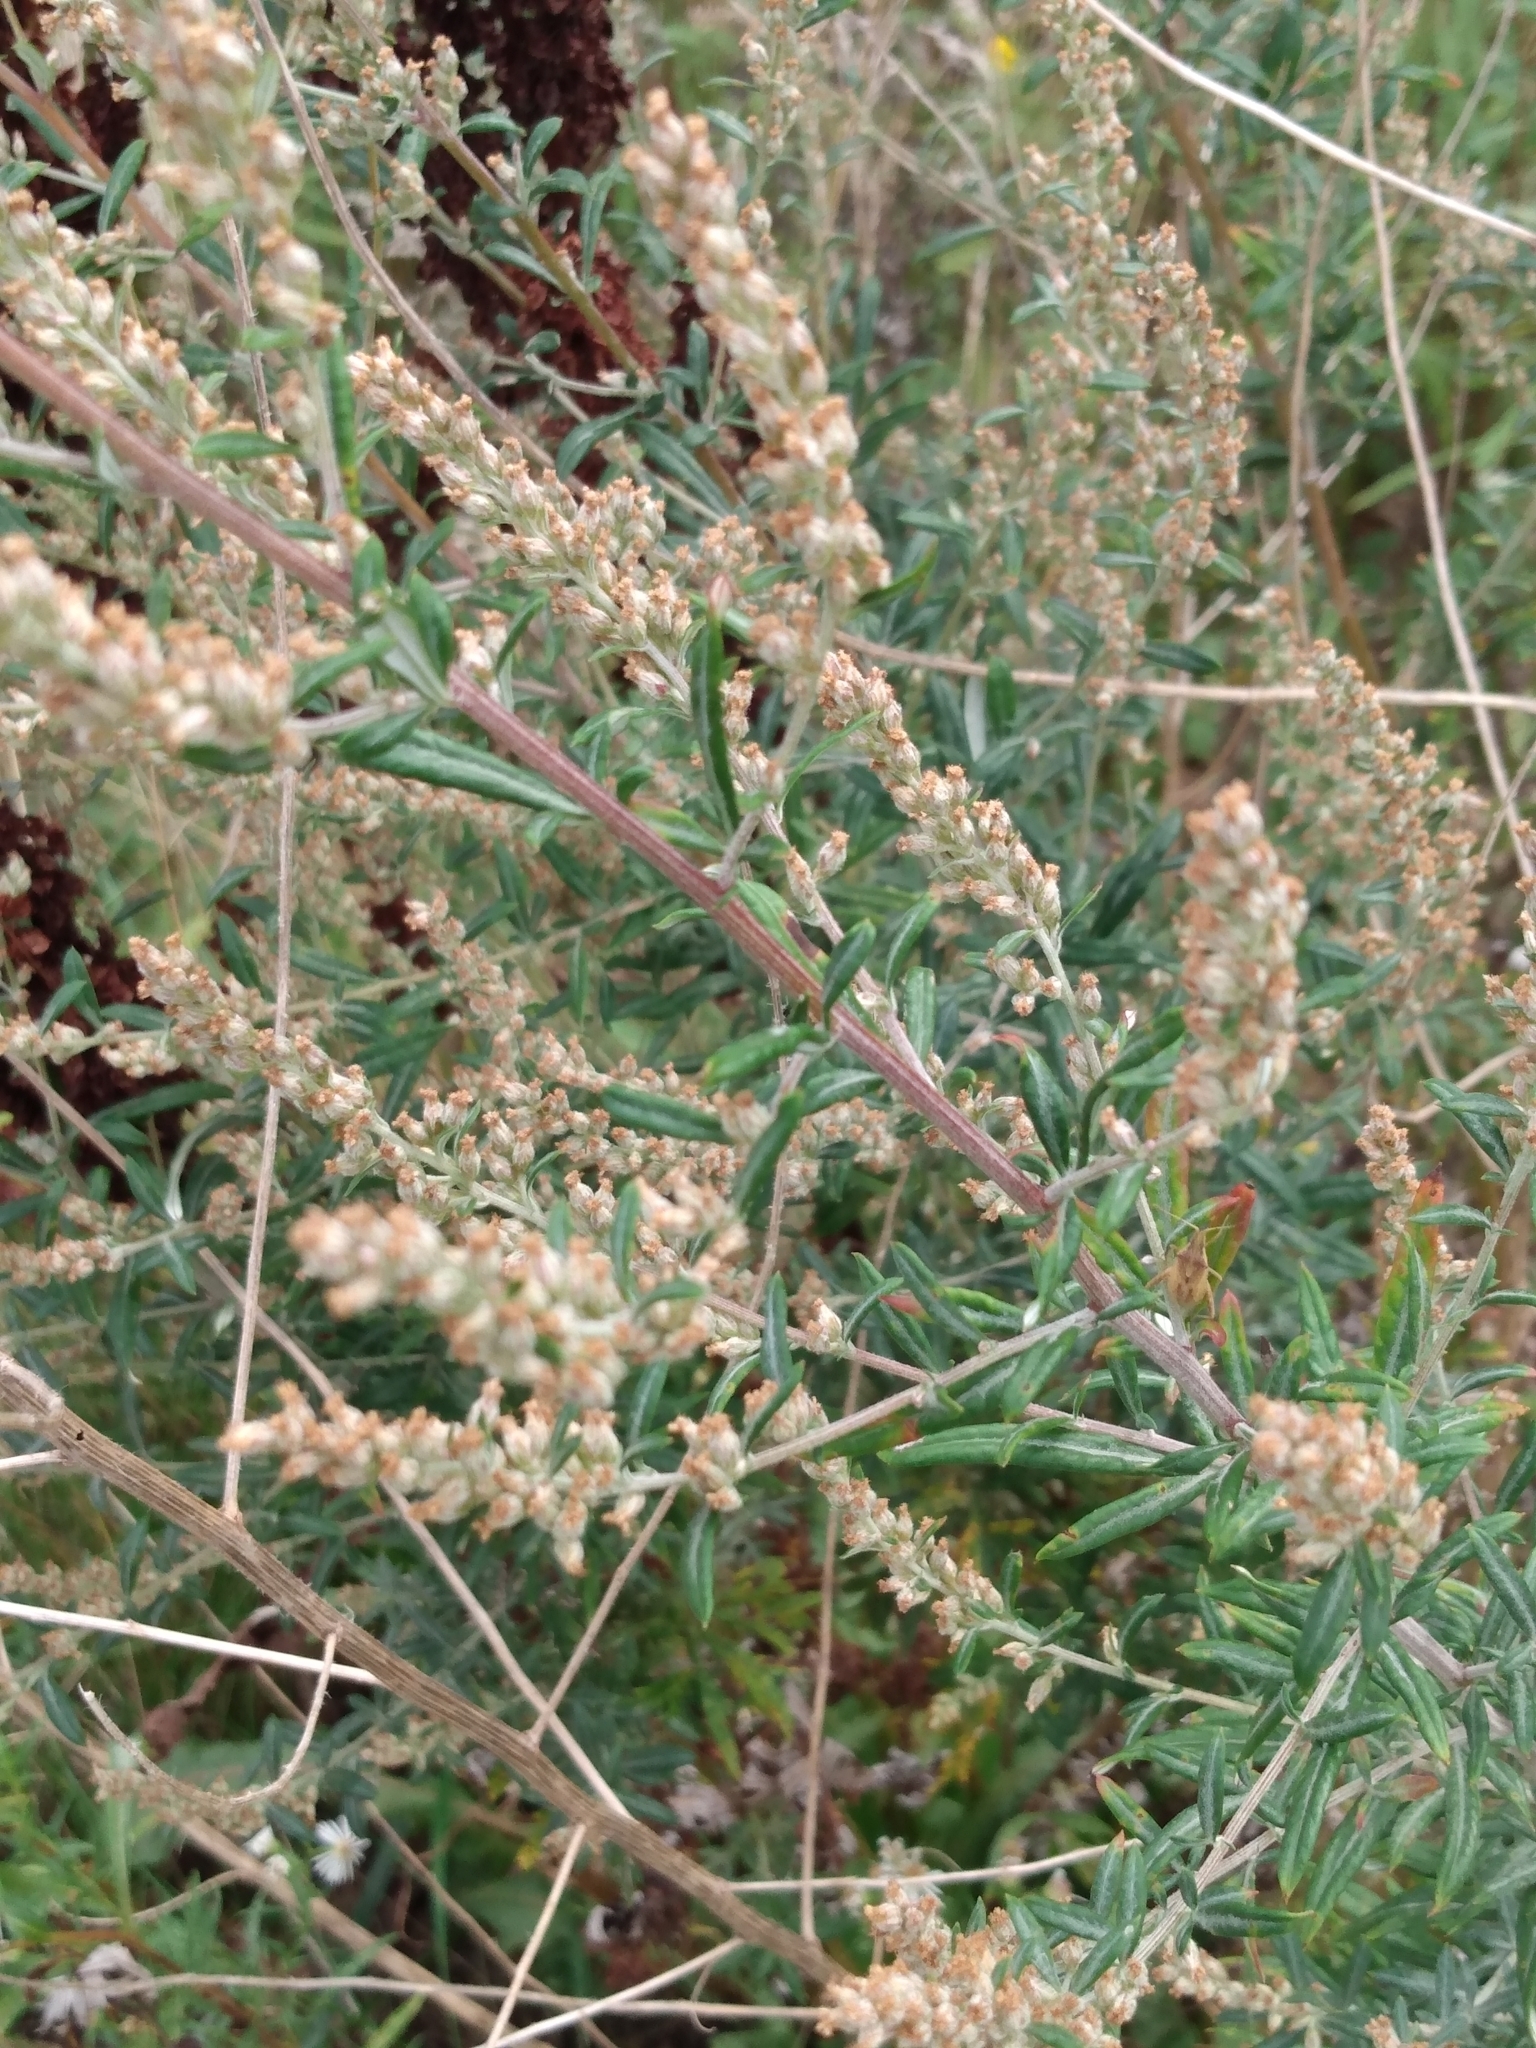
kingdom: Plantae
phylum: Tracheophyta
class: Magnoliopsida
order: Asterales
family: Asteraceae
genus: Artemisia
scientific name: Artemisia vulgaris
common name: Mugwort
